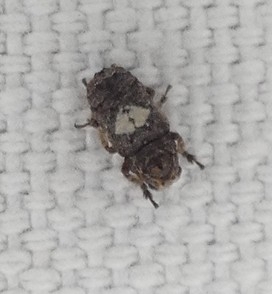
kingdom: Animalia
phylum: Arthropoda
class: Insecta
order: Coleoptera
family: Anthribidae
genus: Toxonotus
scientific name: Toxonotus cornutus
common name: Fungus weevil
